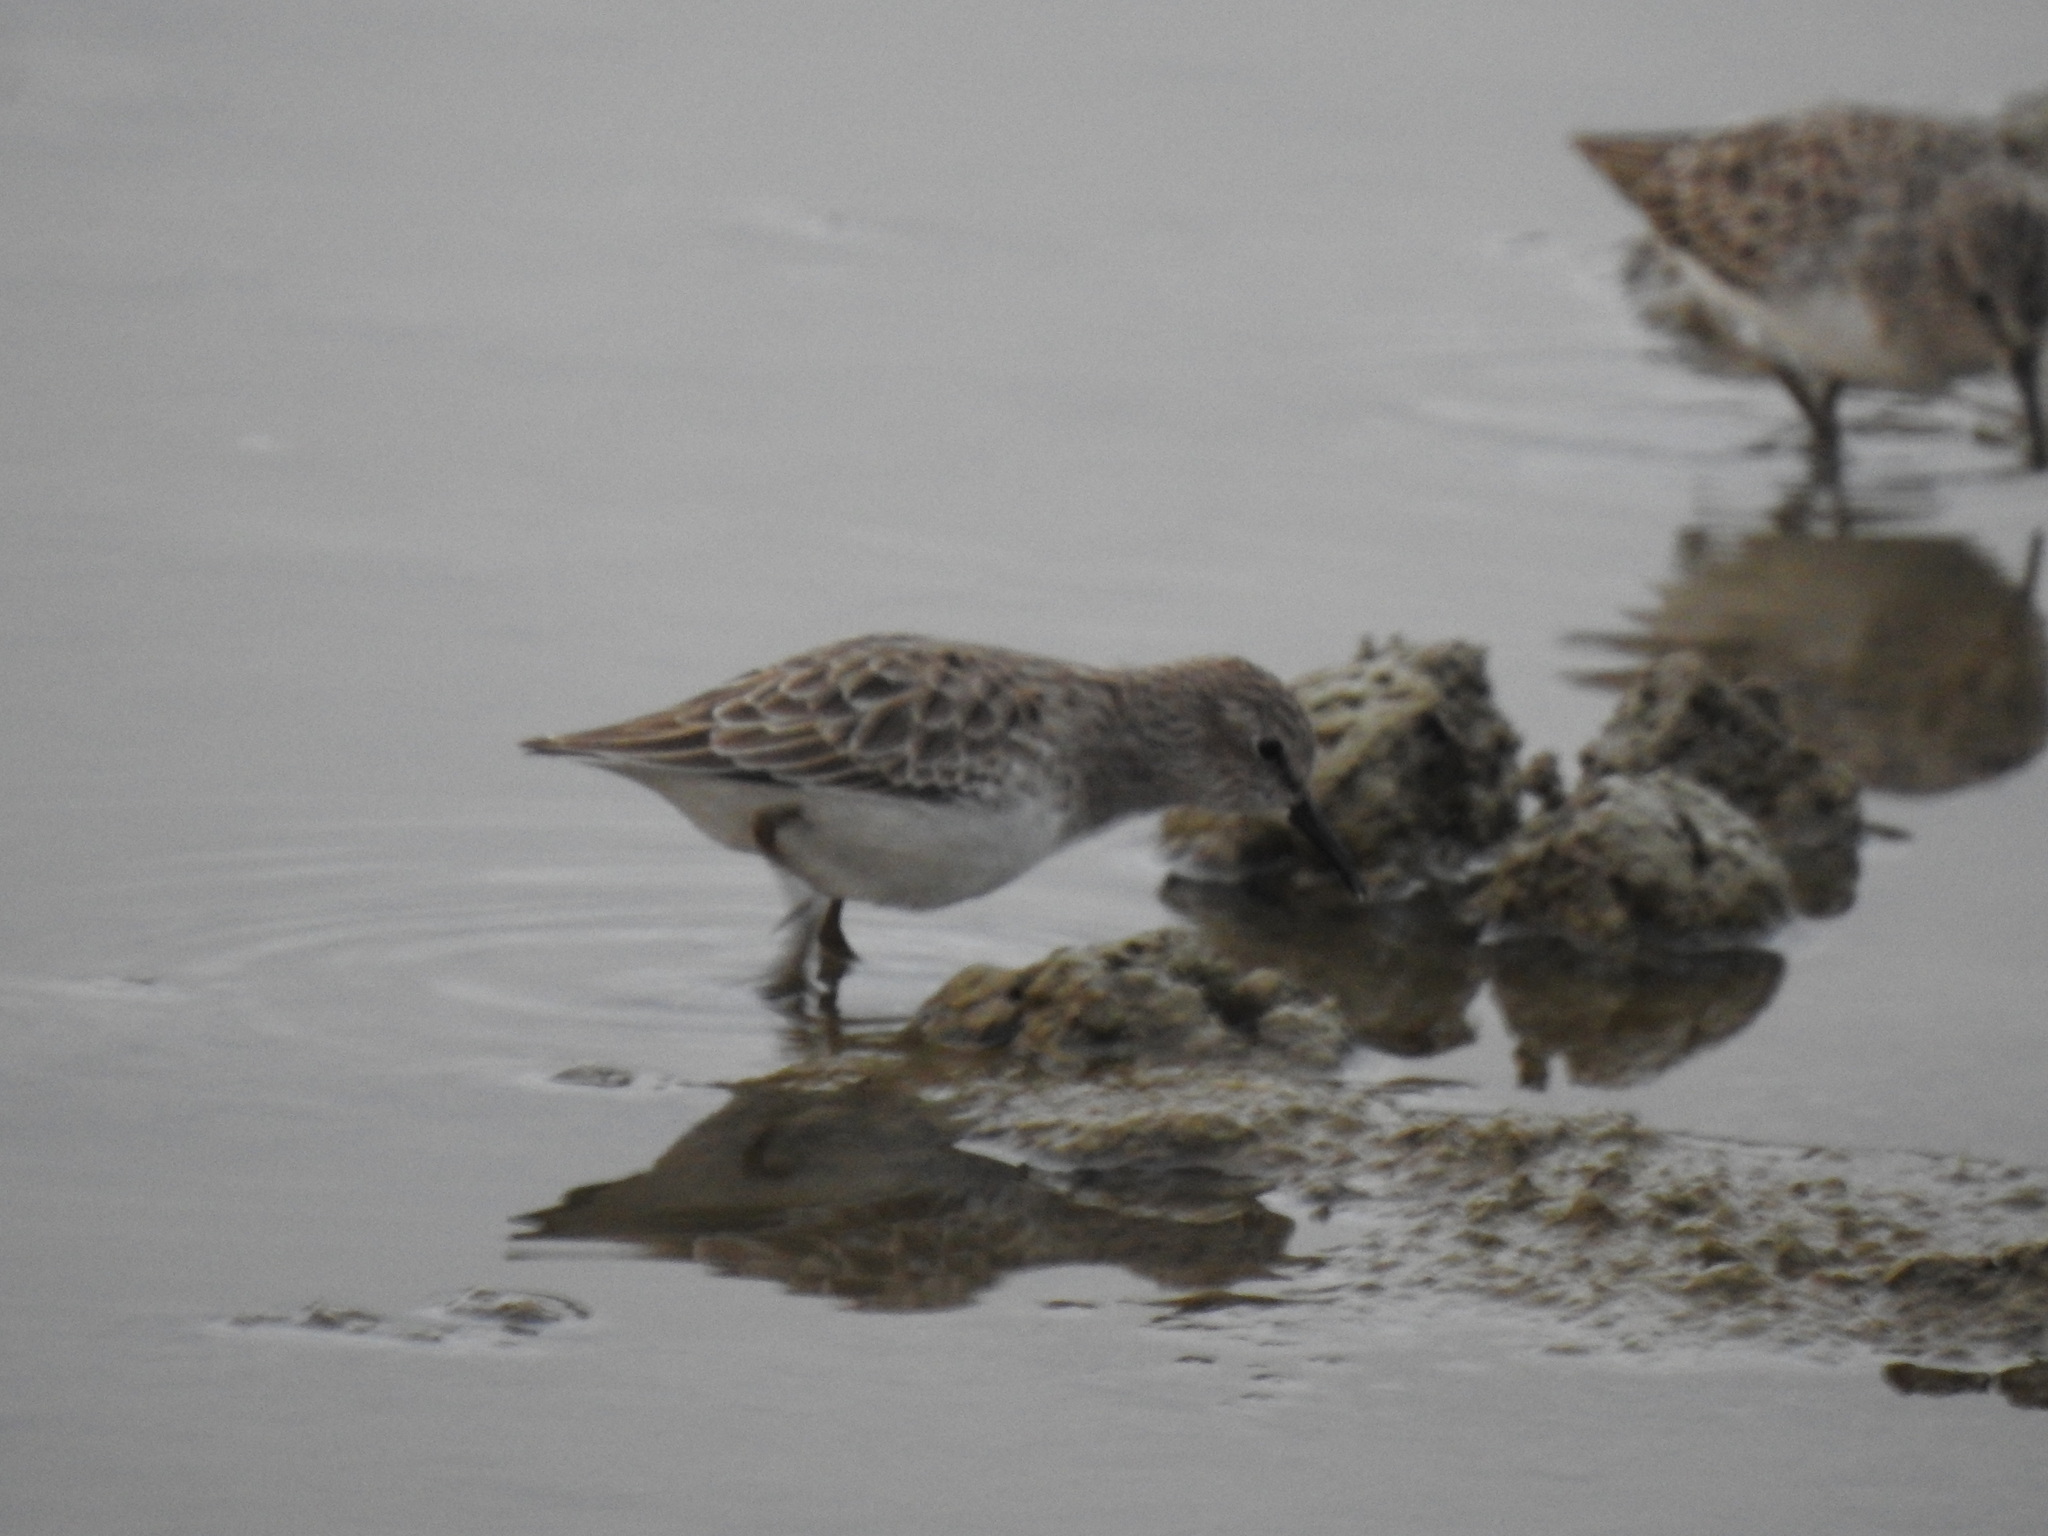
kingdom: Animalia
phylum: Chordata
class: Aves
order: Charadriiformes
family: Scolopacidae
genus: Calidris
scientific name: Calidris minutilla
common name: Least sandpiper
